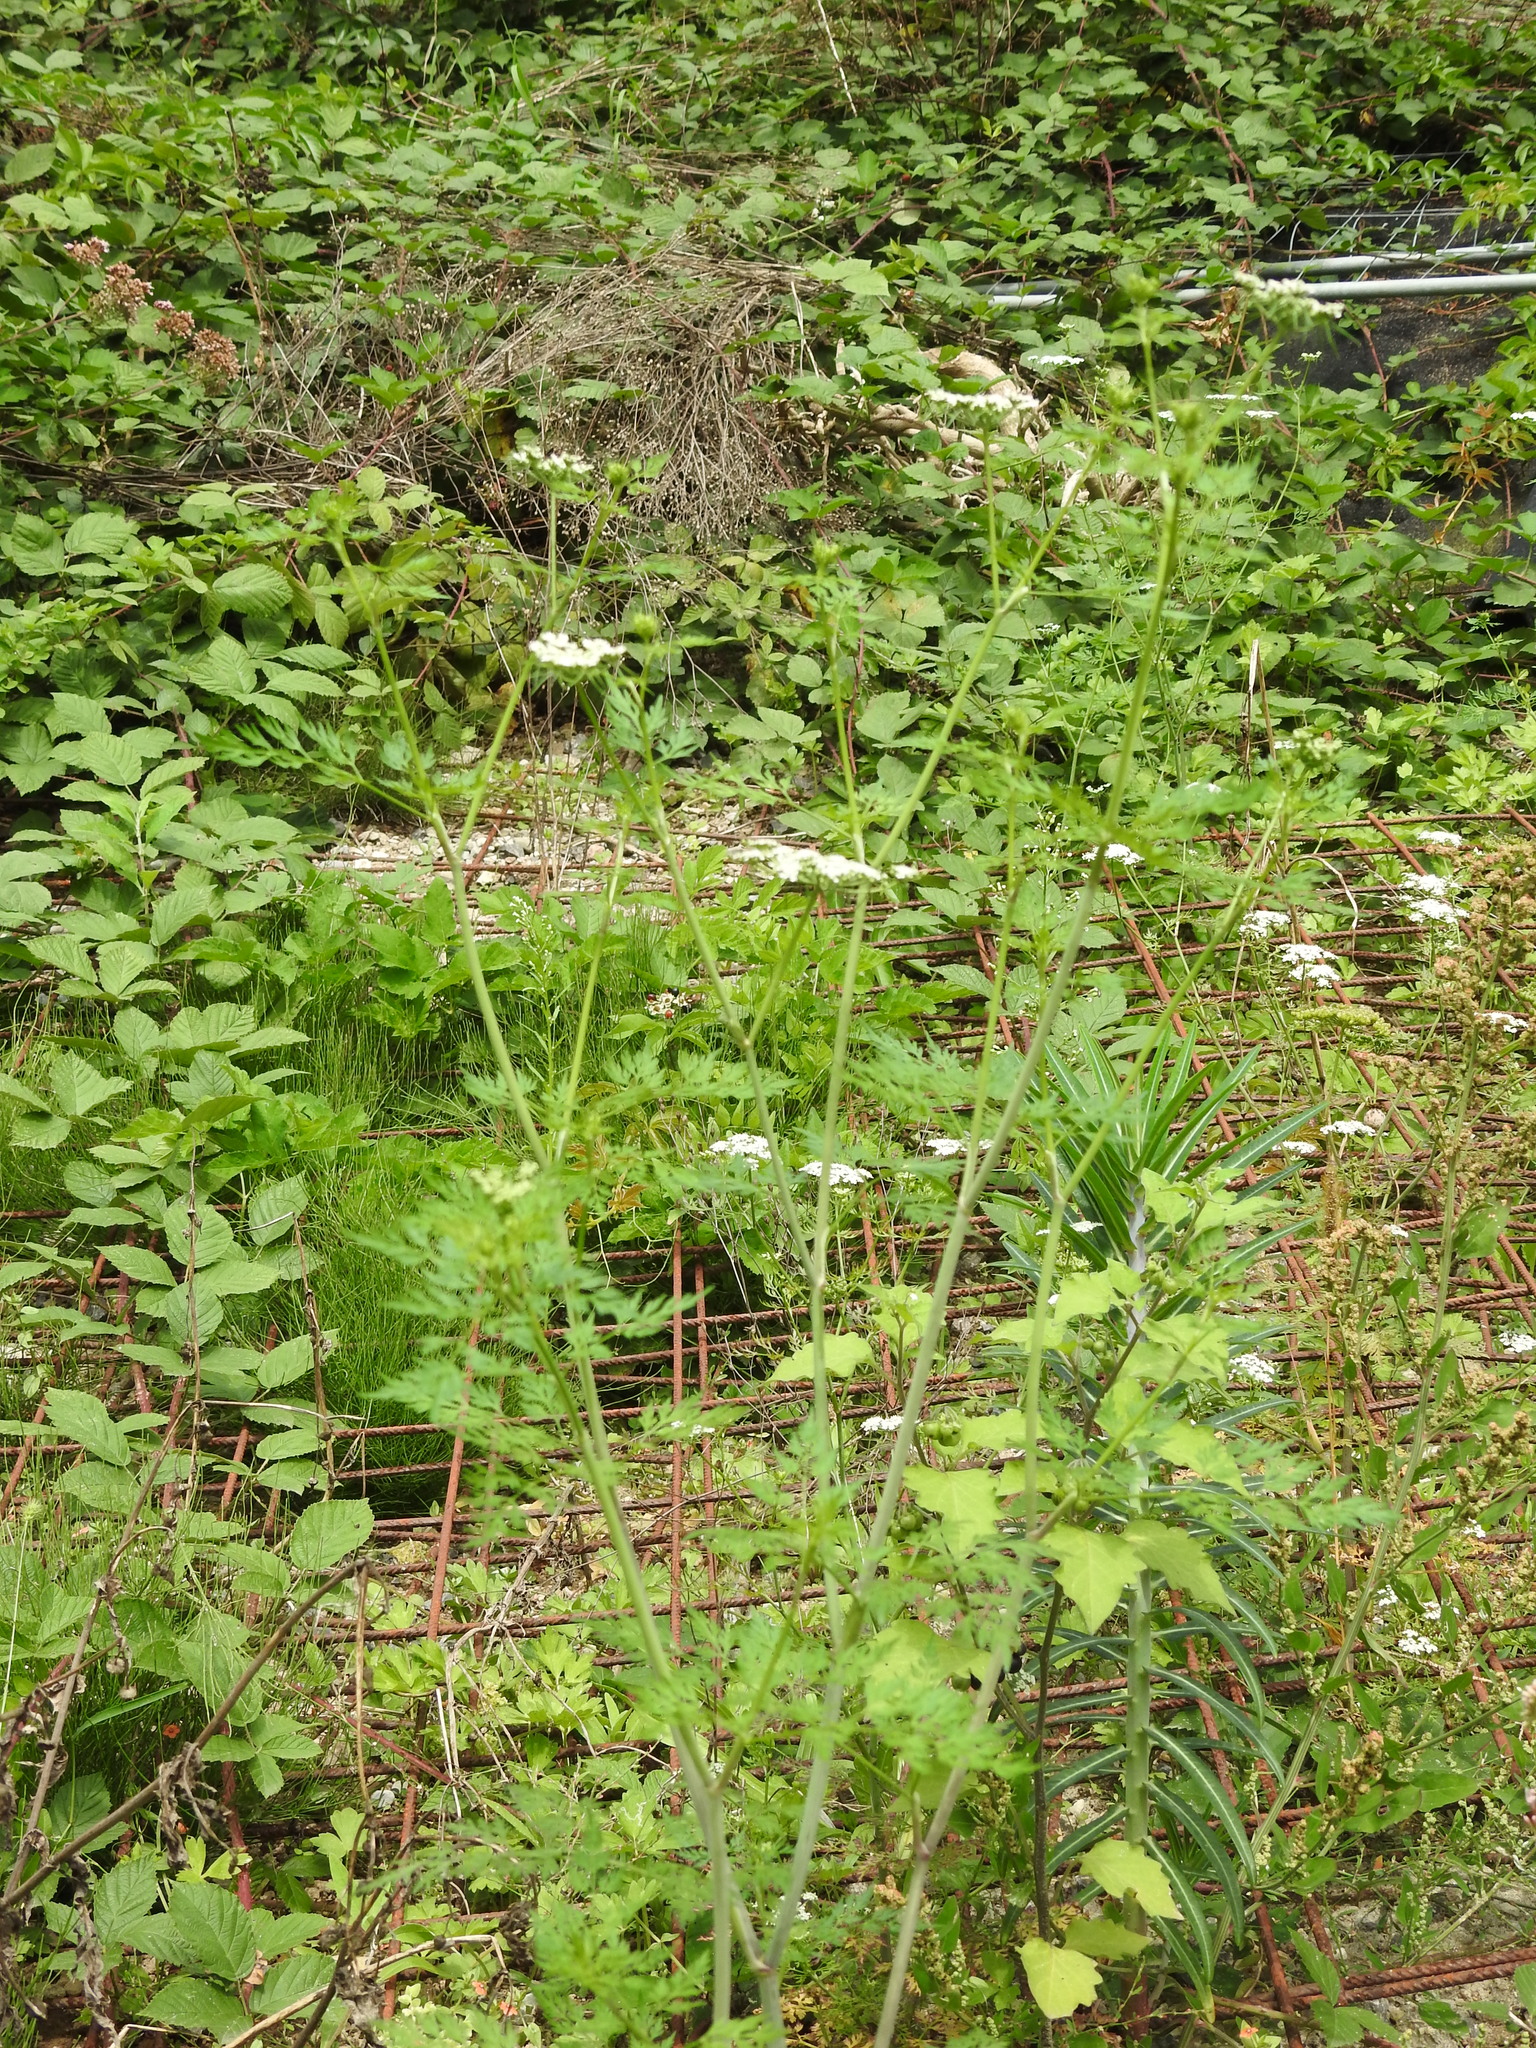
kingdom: Plantae
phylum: Tracheophyta
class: Magnoliopsida
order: Apiales
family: Apiaceae
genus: Aethusa
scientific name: Aethusa cynapium
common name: Fool's parsley
